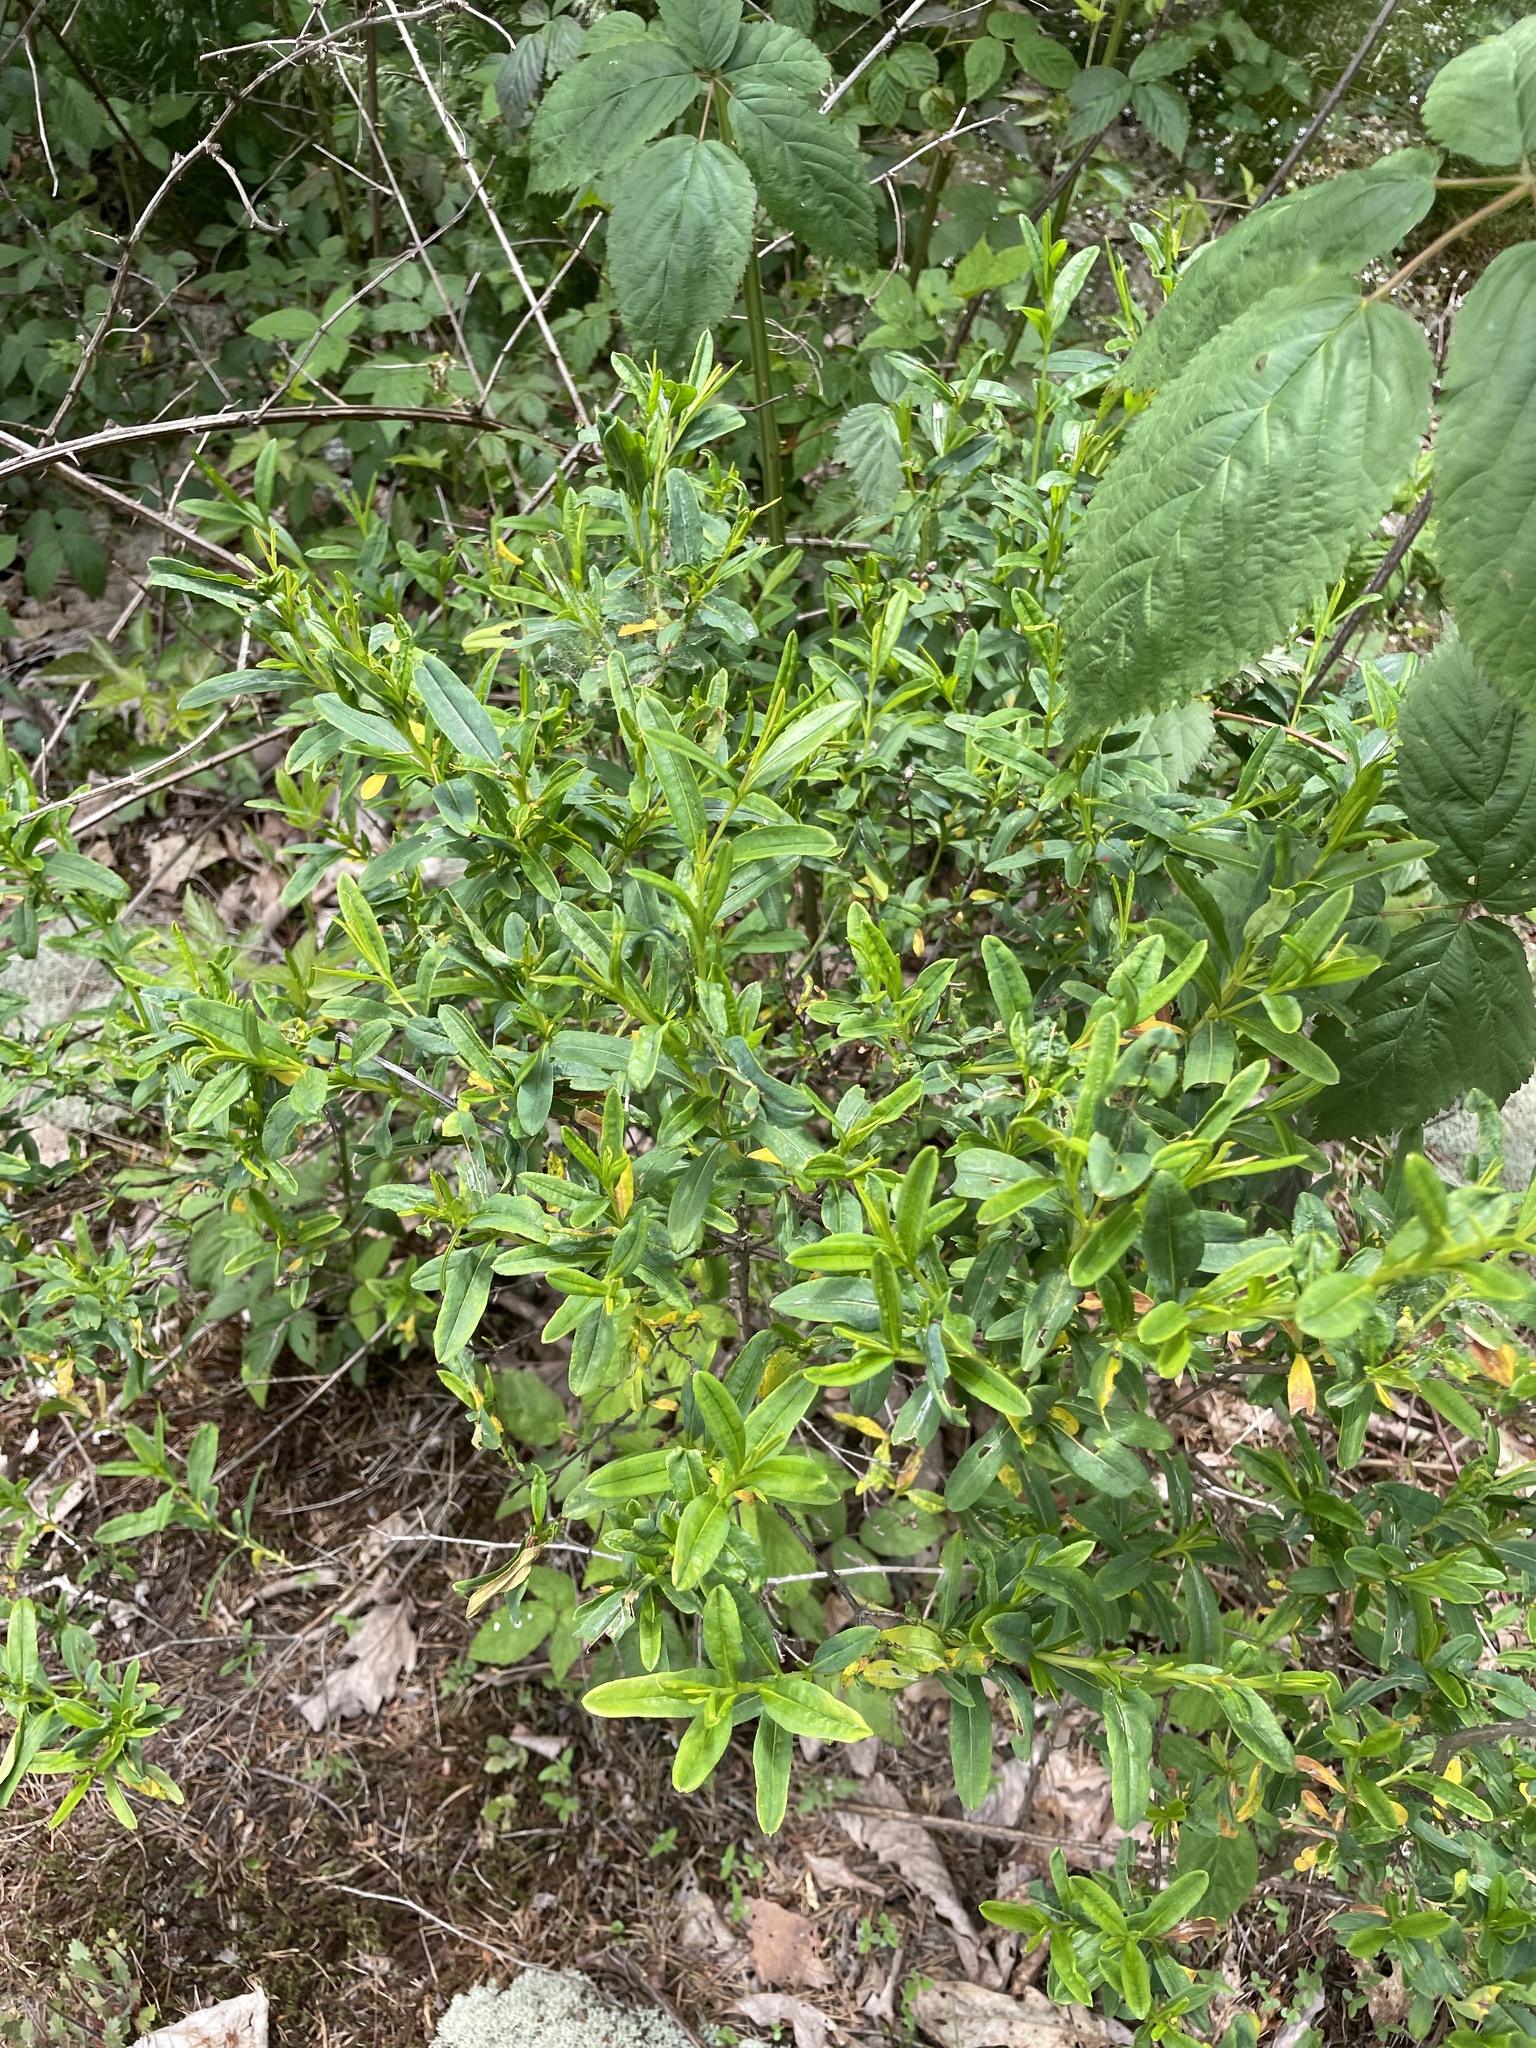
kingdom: Plantae
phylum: Tracheophyta
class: Magnoliopsida
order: Malpighiales
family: Hypericaceae
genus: Hypericum
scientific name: Hypericum prolificum
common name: Shrubby st. john's-wort
